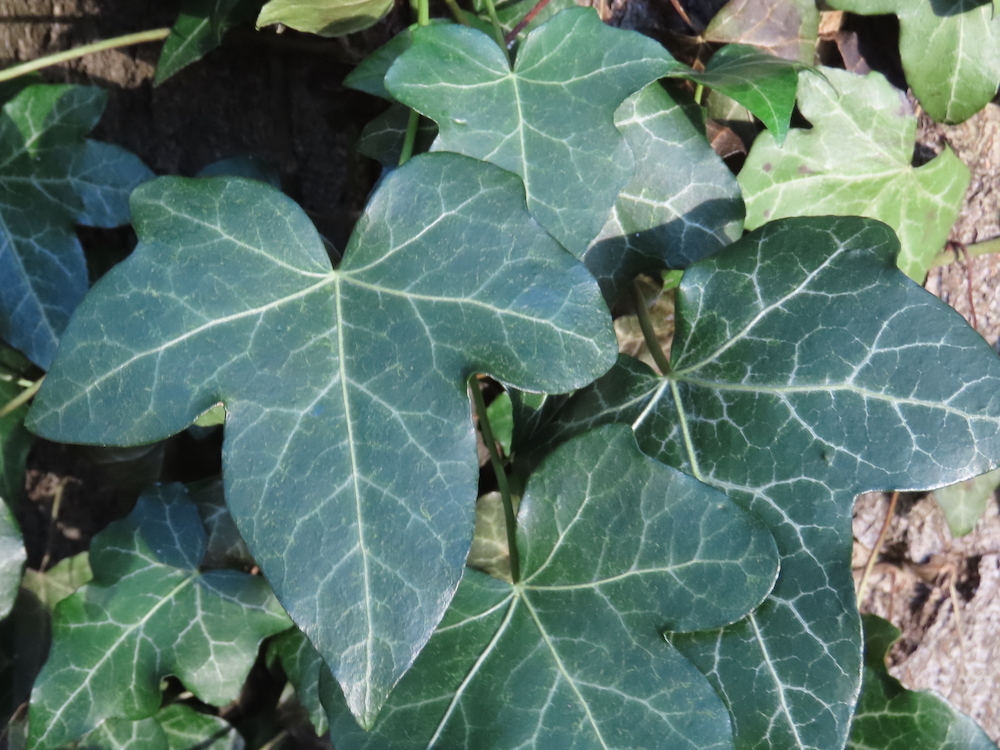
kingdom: Plantae
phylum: Tracheophyta
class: Magnoliopsida
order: Apiales
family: Araliaceae
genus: Hedera
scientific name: Hedera helix
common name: Ivy
